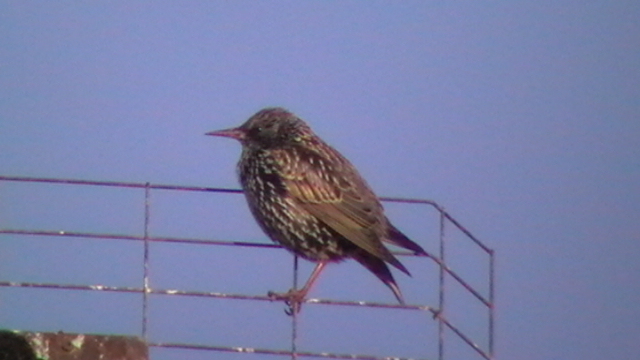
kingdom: Animalia
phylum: Chordata
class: Aves
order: Passeriformes
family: Sturnidae
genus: Sturnus
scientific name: Sturnus vulgaris
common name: Common starling
